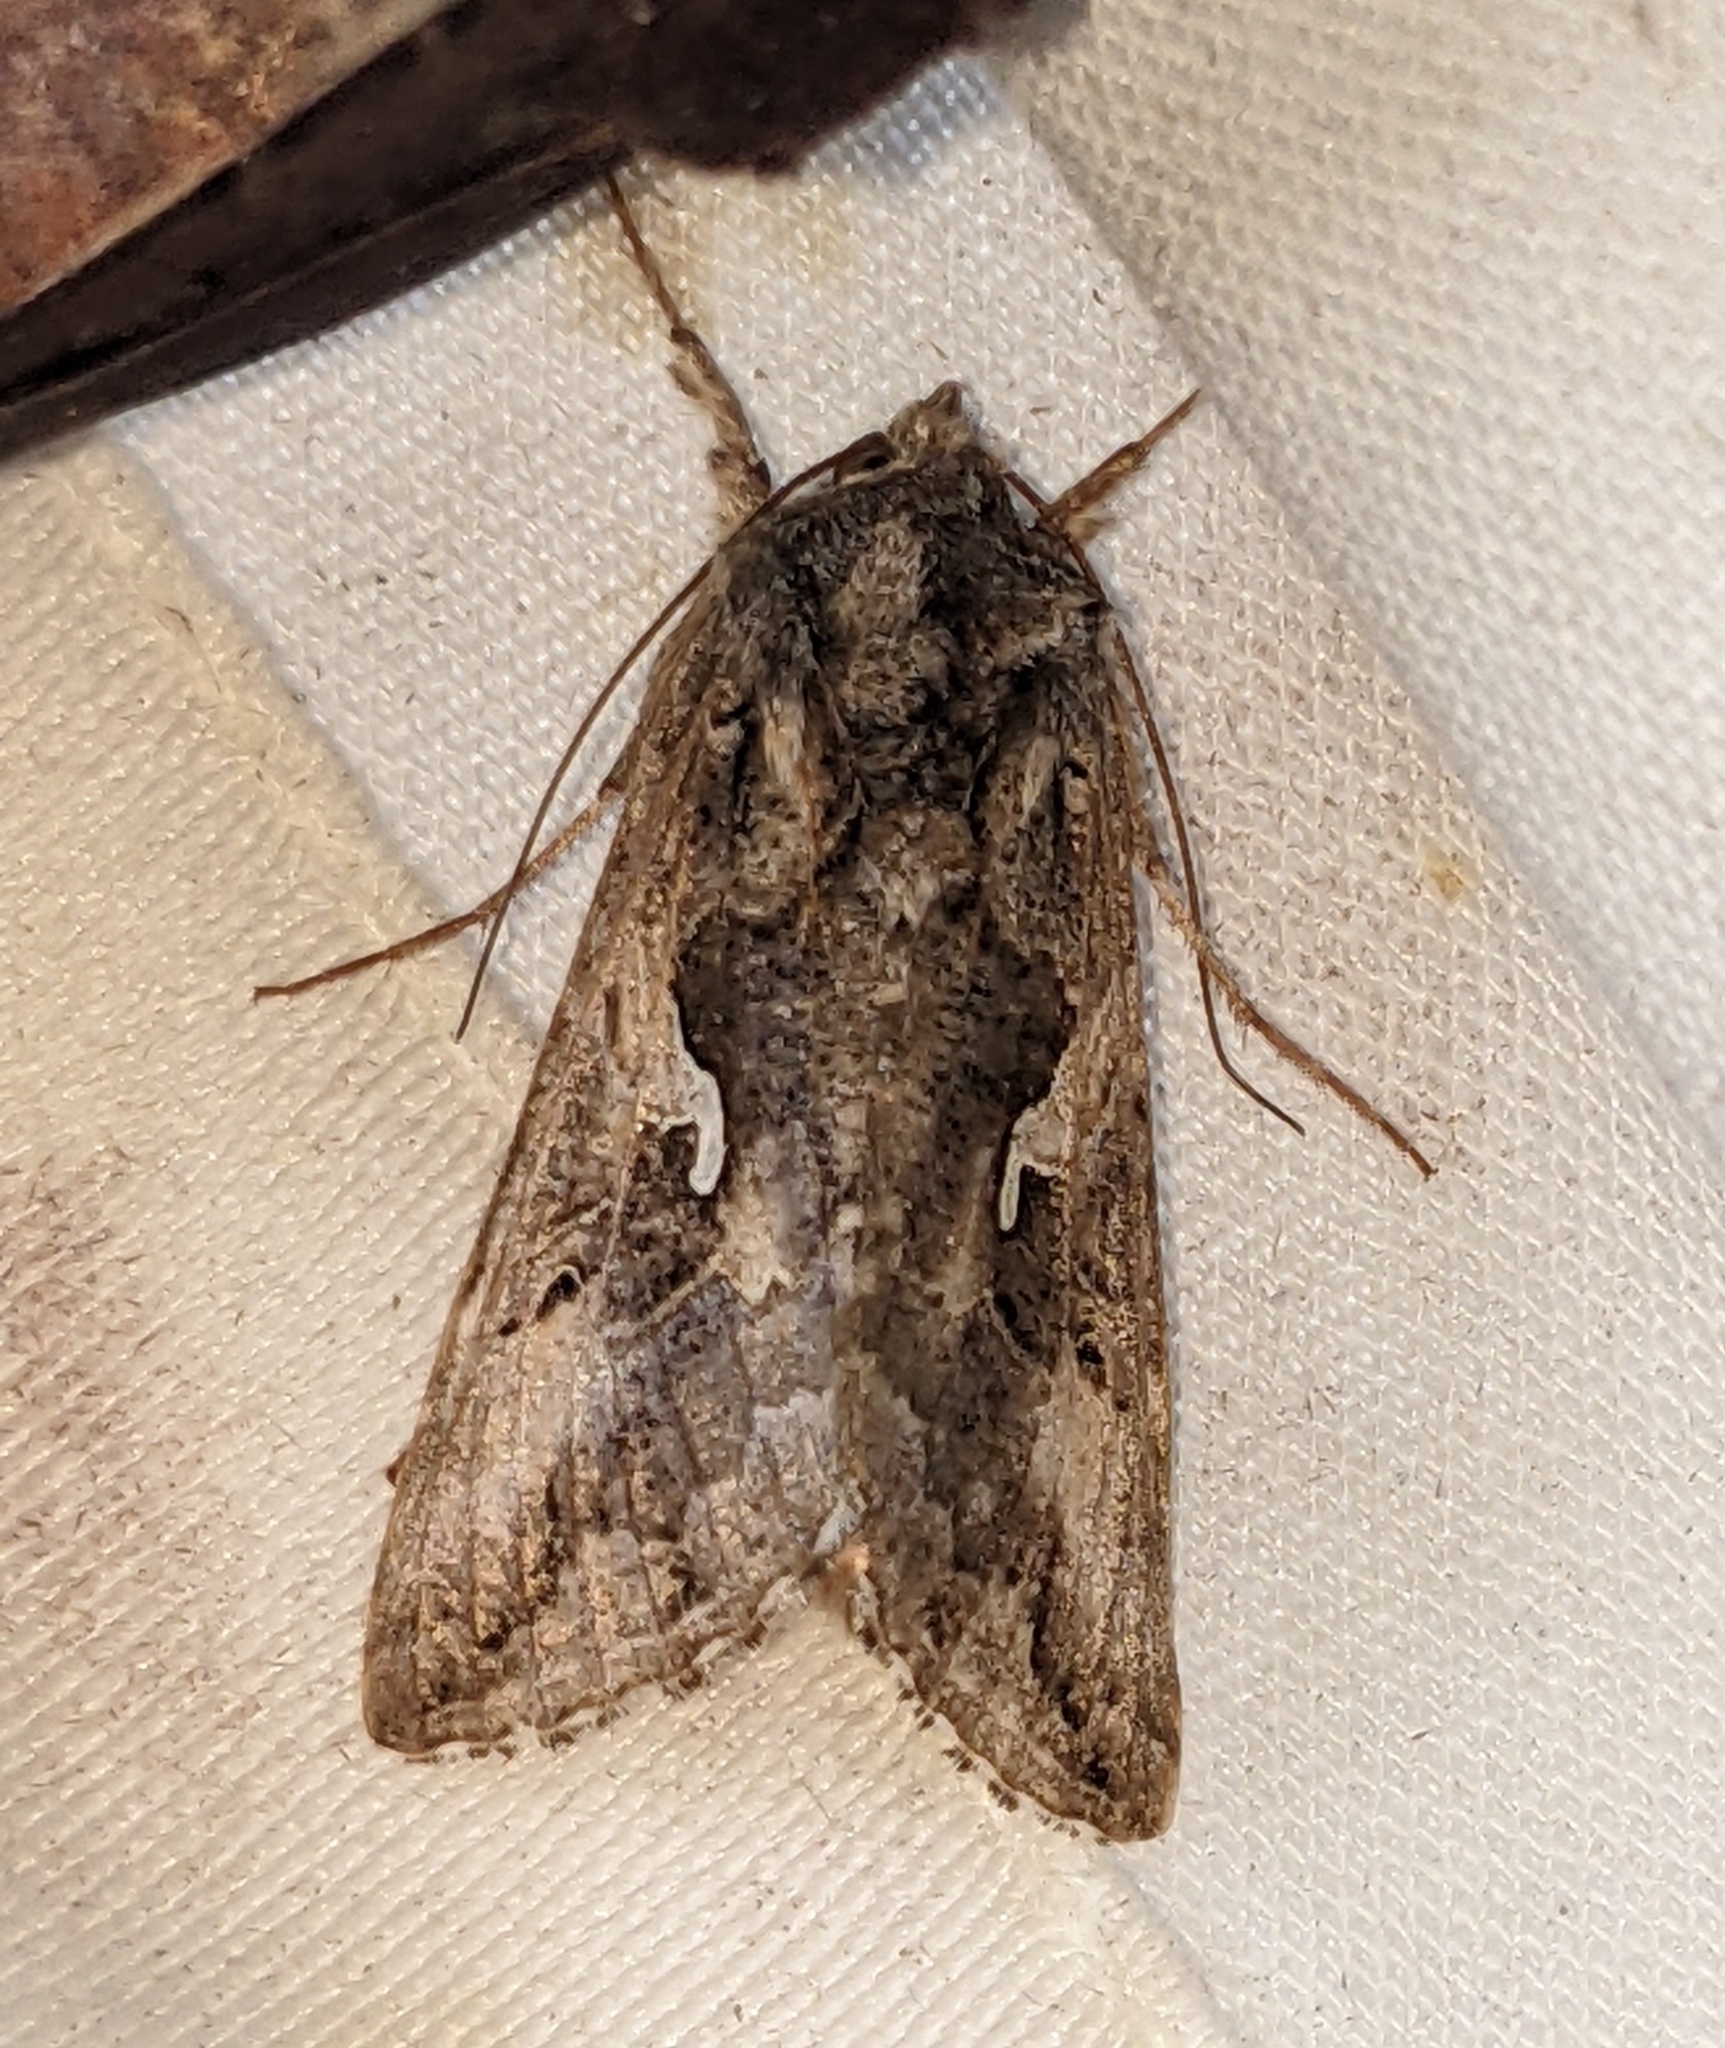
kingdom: Animalia
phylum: Arthropoda
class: Insecta
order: Lepidoptera
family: Noctuidae
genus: Autographa
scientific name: Autographa californica
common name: Alfalfa looper
